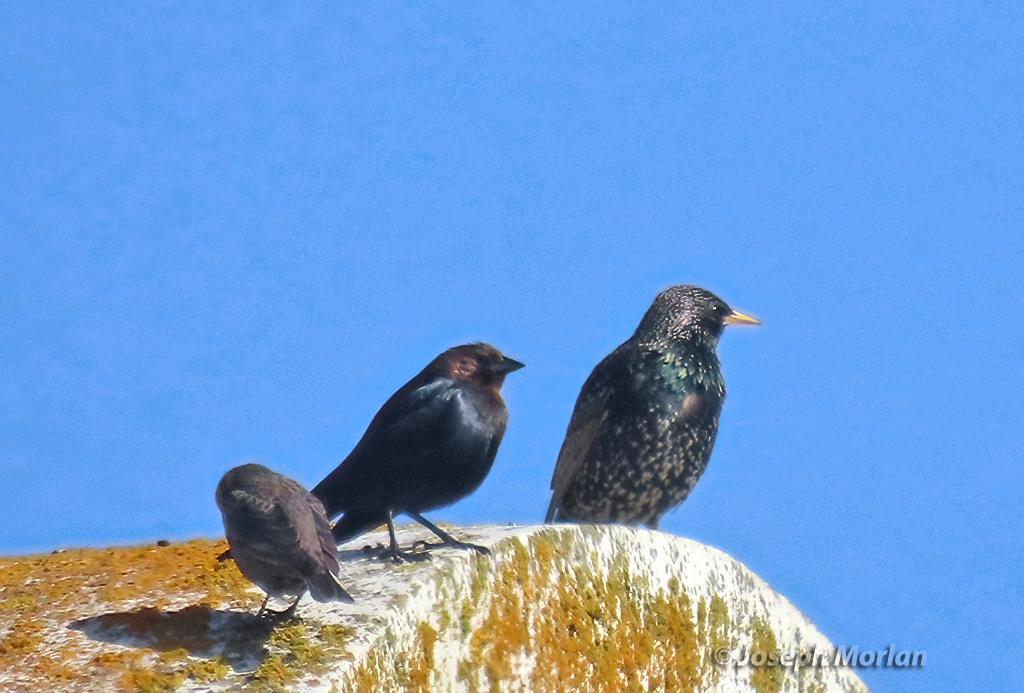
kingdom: Animalia
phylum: Chordata
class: Aves
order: Passeriformes
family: Icteridae
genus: Molothrus
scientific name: Molothrus ater
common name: Brown-headed cowbird
